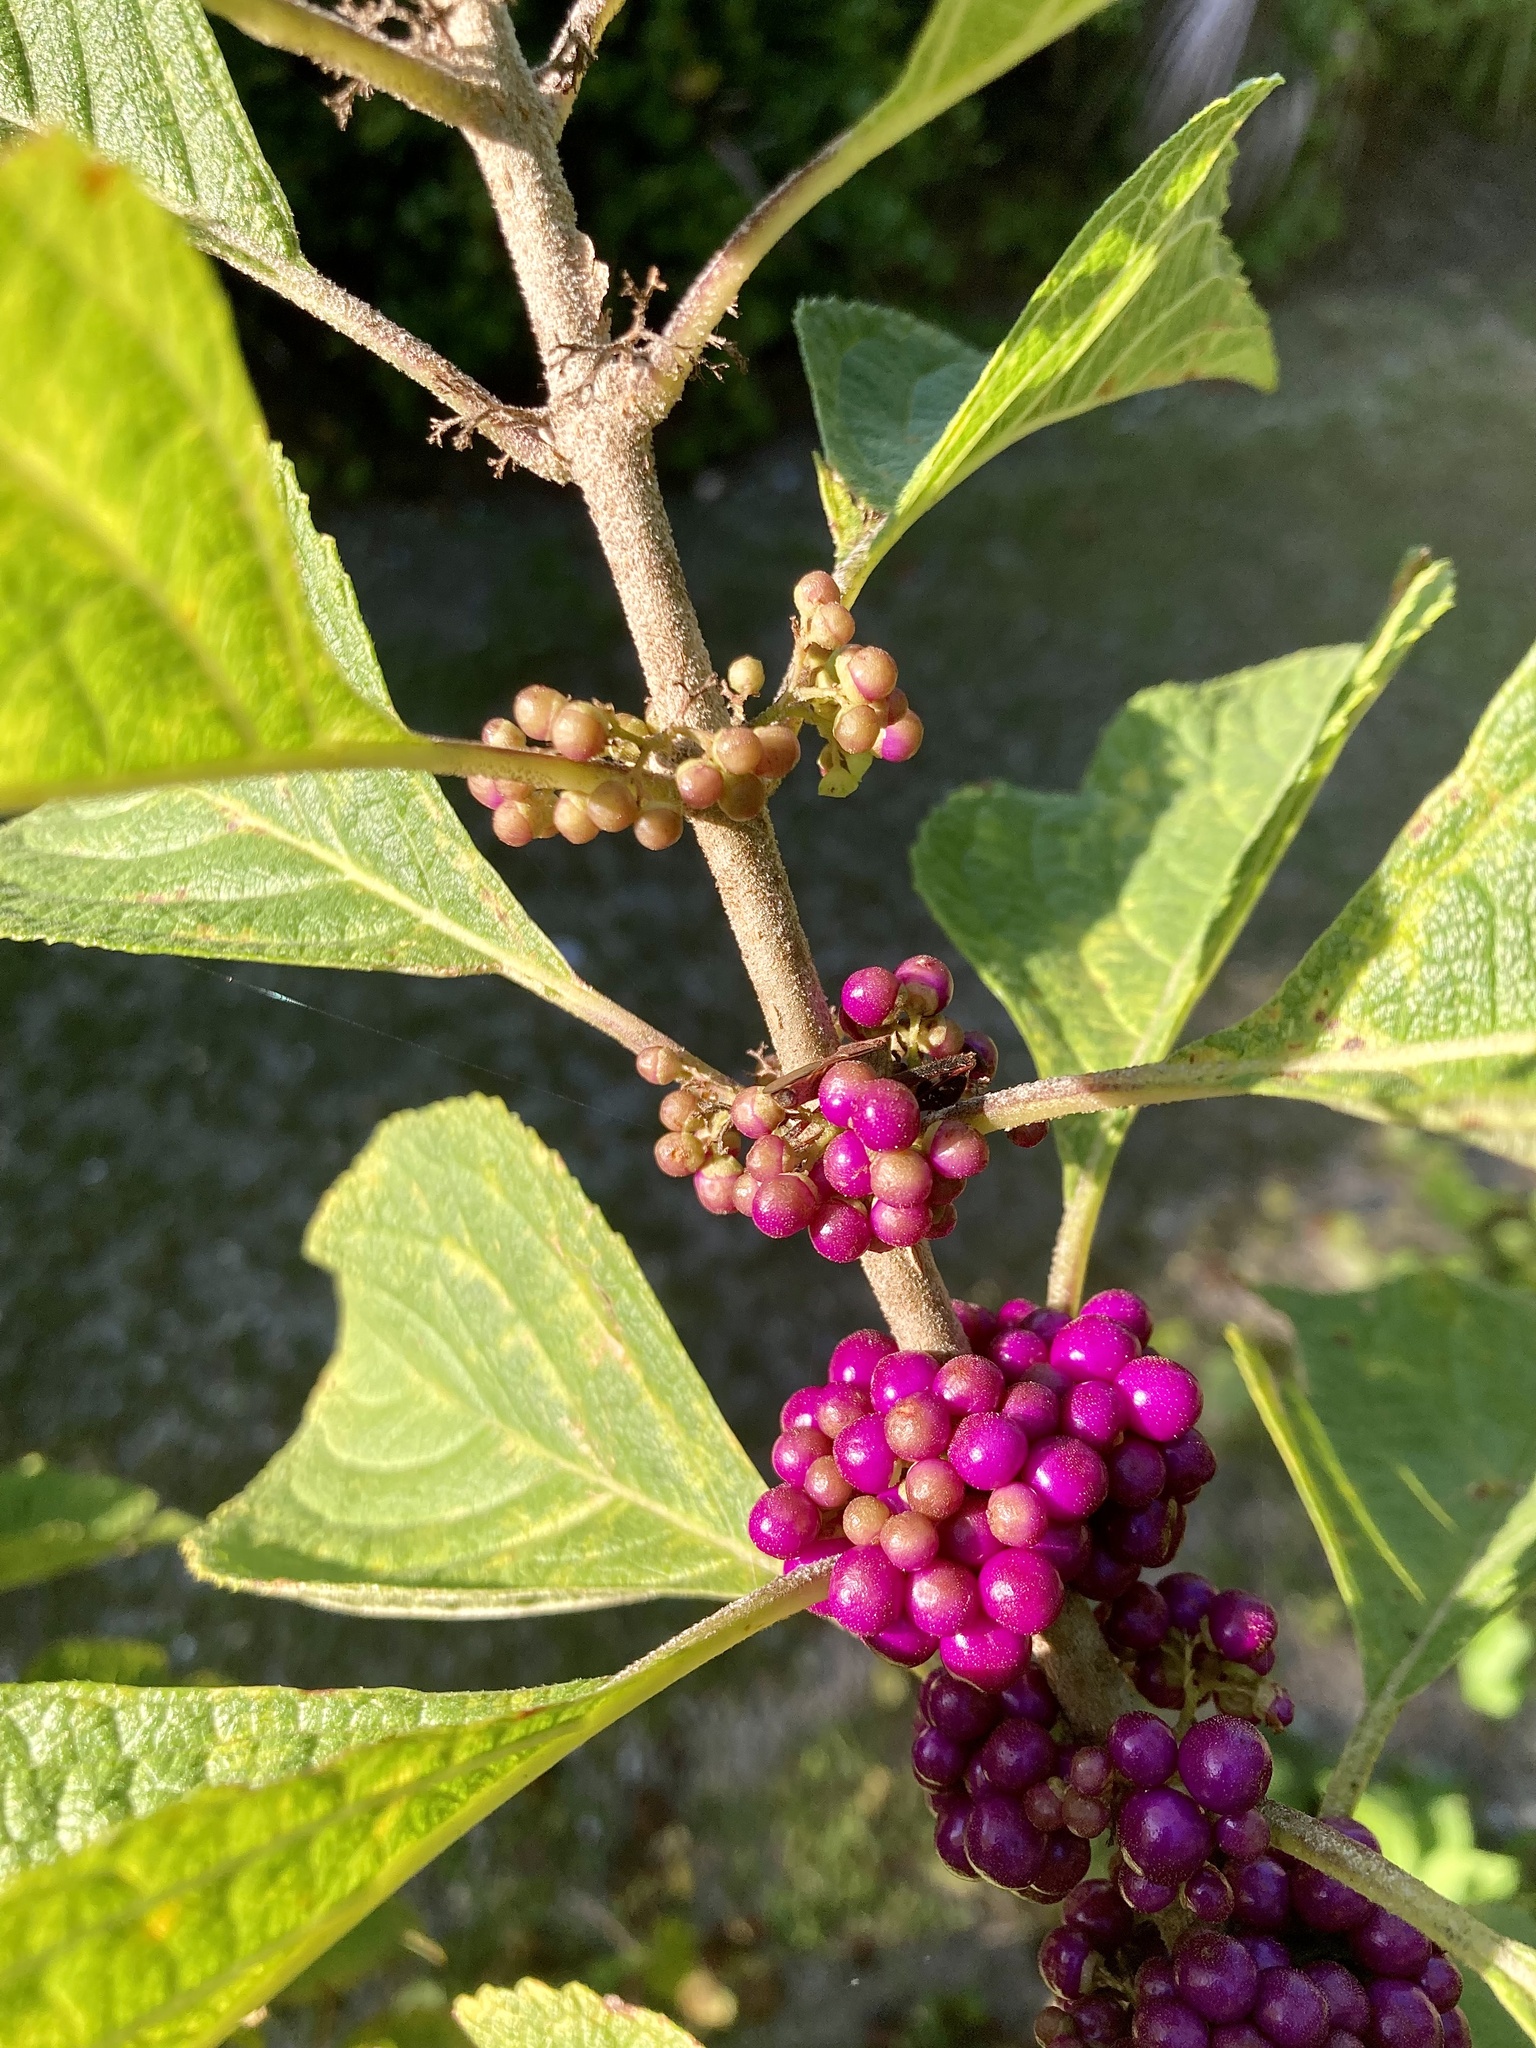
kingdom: Plantae
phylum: Tracheophyta
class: Magnoliopsida
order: Lamiales
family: Lamiaceae
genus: Callicarpa
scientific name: Callicarpa americana
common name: American beautyberry
